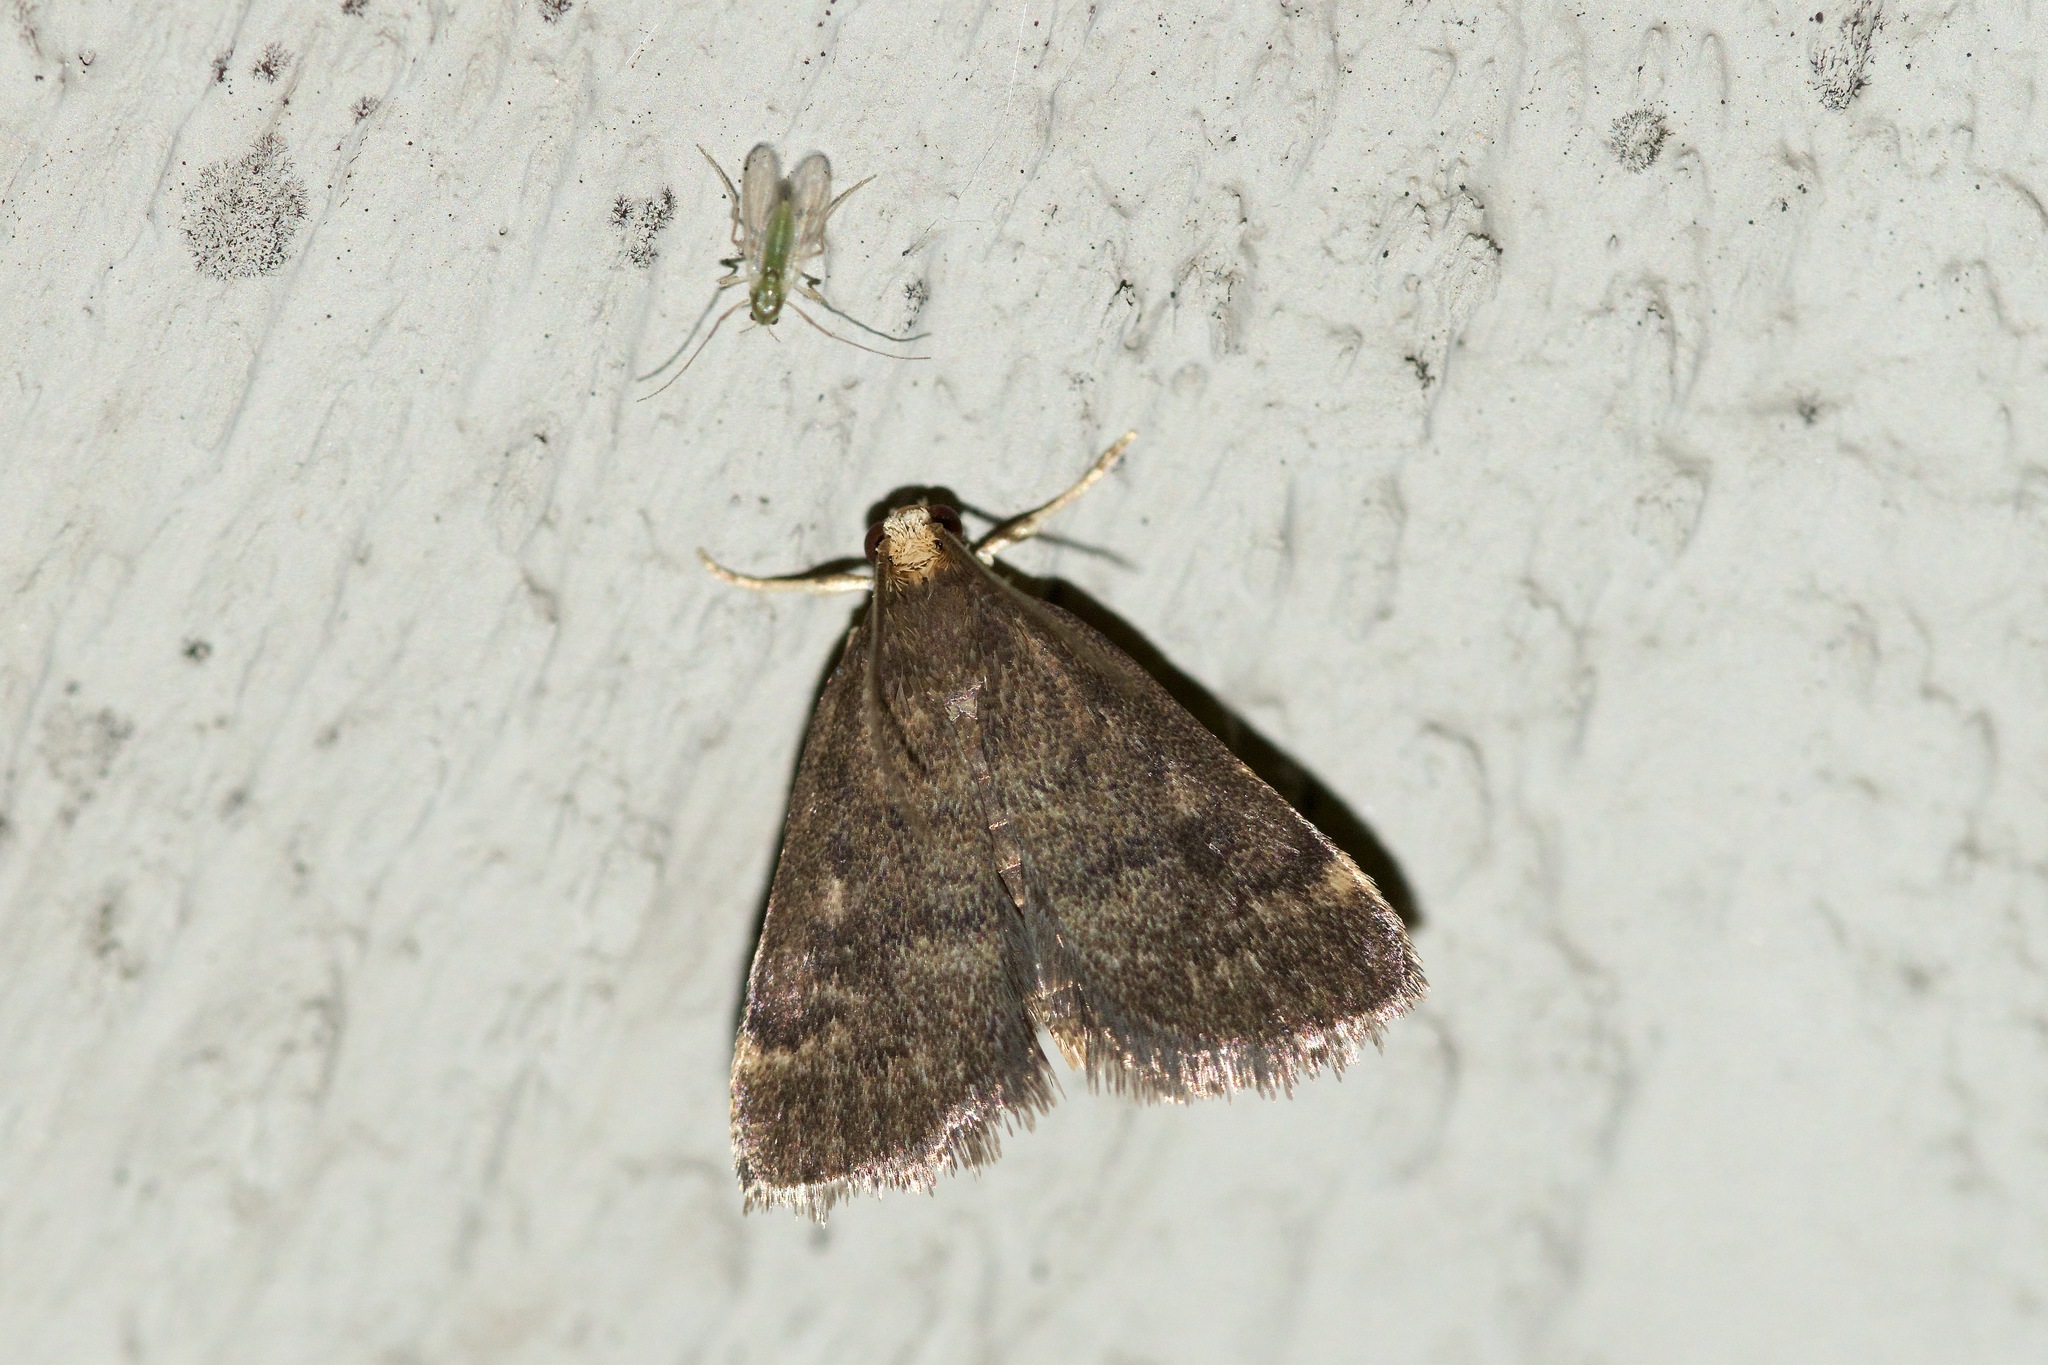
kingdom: Animalia
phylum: Arthropoda
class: Insecta
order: Lepidoptera
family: Crambidae
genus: Pyrausta
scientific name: Pyrausta merrickalis
